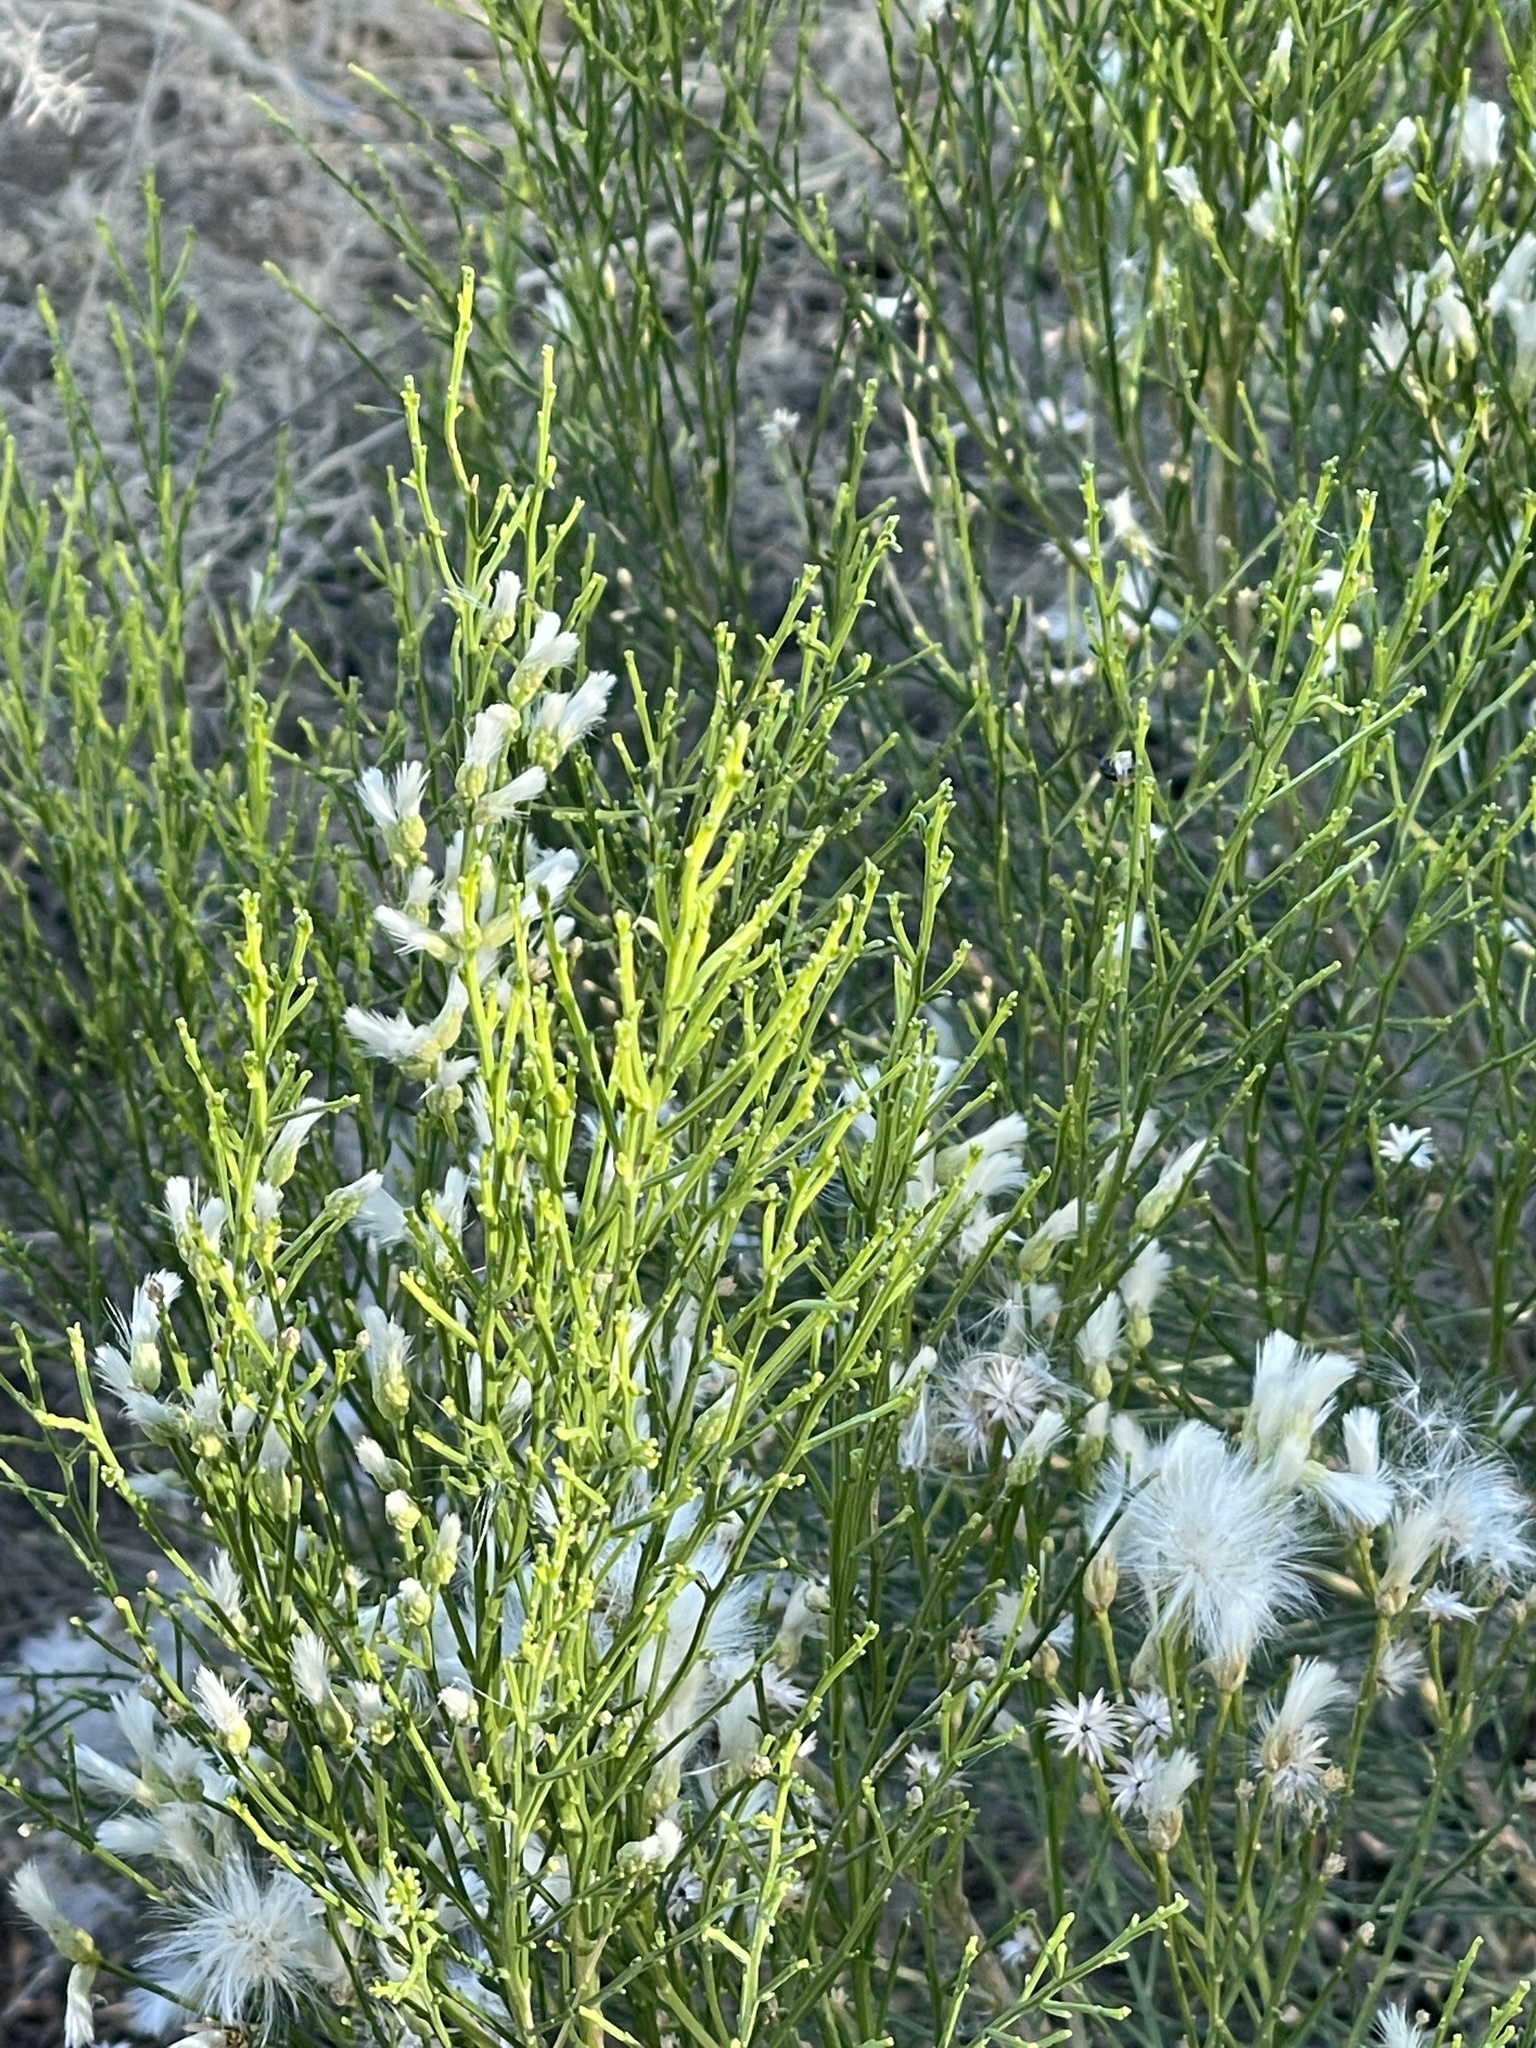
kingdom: Plantae
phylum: Tracheophyta
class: Magnoliopsida
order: Asterales
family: Asteraceae
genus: Baccharis
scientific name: Baccharis sarothroides
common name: Desert-broom
